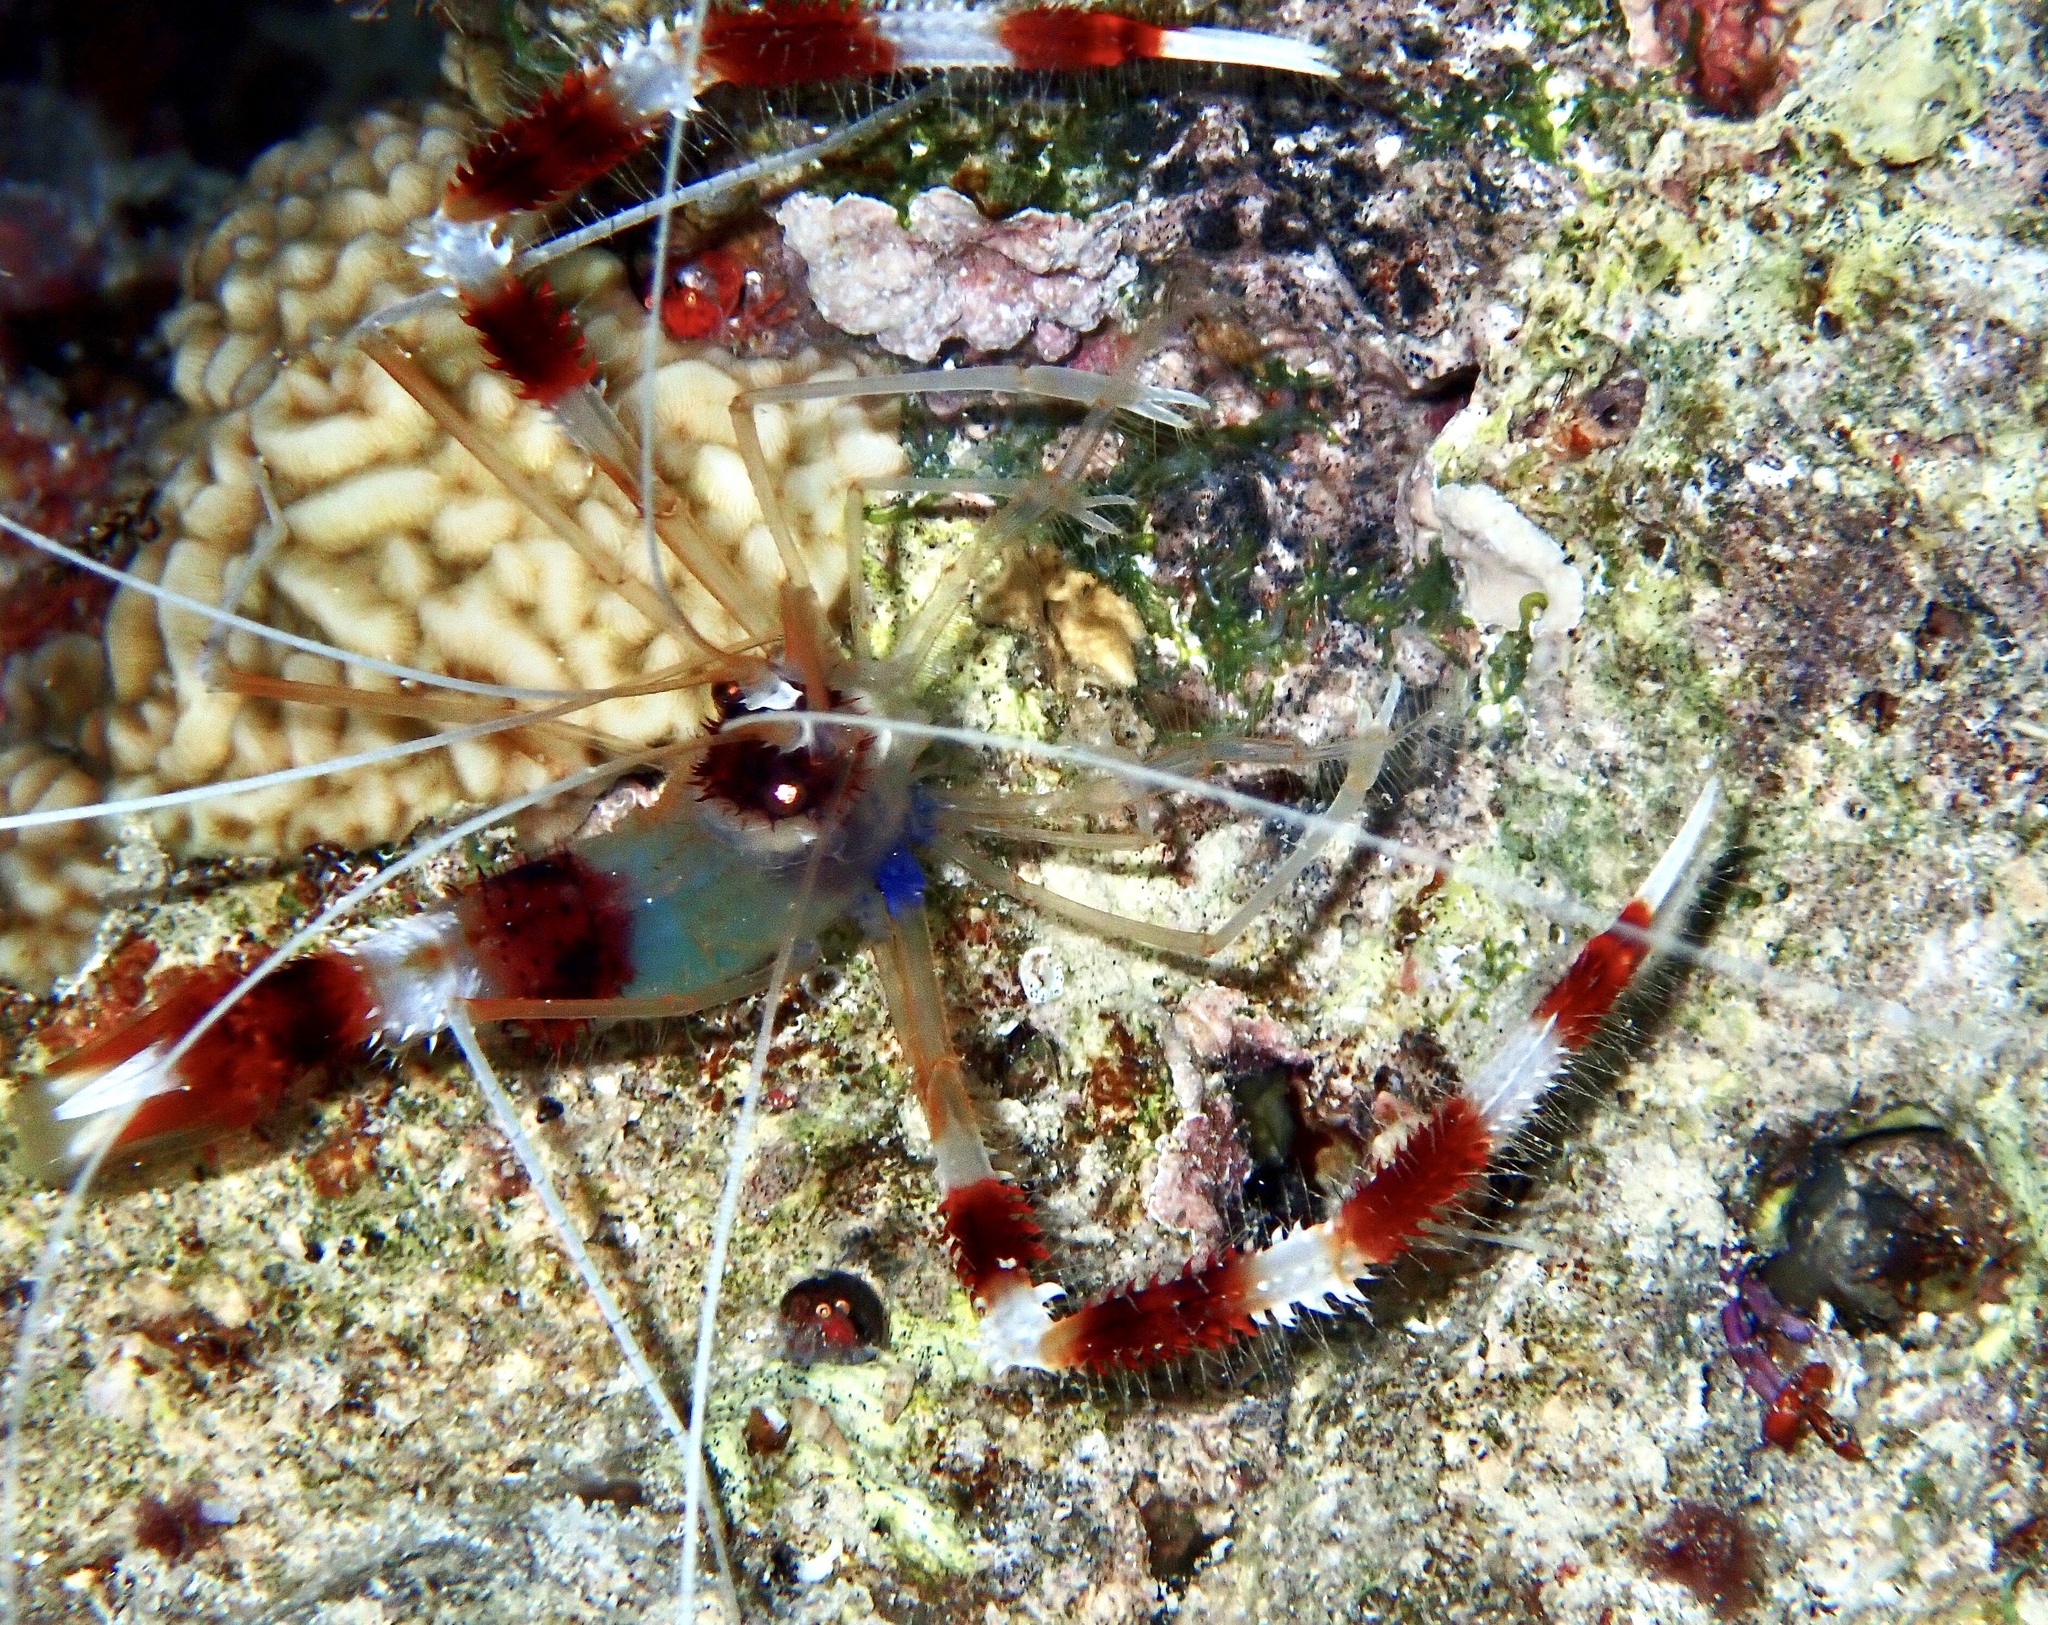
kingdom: Animalia
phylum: Arthropoda
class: Malacostraca
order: Decapoda
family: Stenopodidae
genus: Stenopus
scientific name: Stenopus hispidus
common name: Banded coral shrimp
